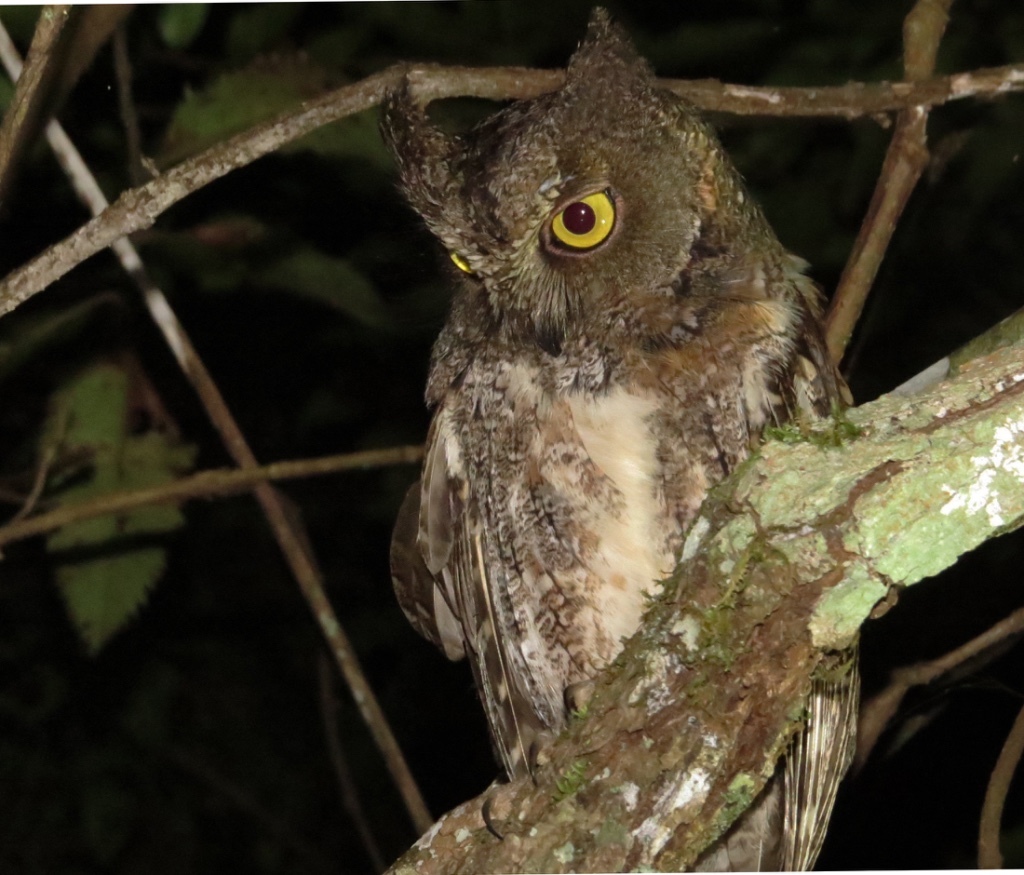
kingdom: Animalia
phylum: Chordata
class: Aves
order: Strigiformes
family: Strigidae
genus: Otus
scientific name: Otus rutilus
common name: Rainforest scops owl
